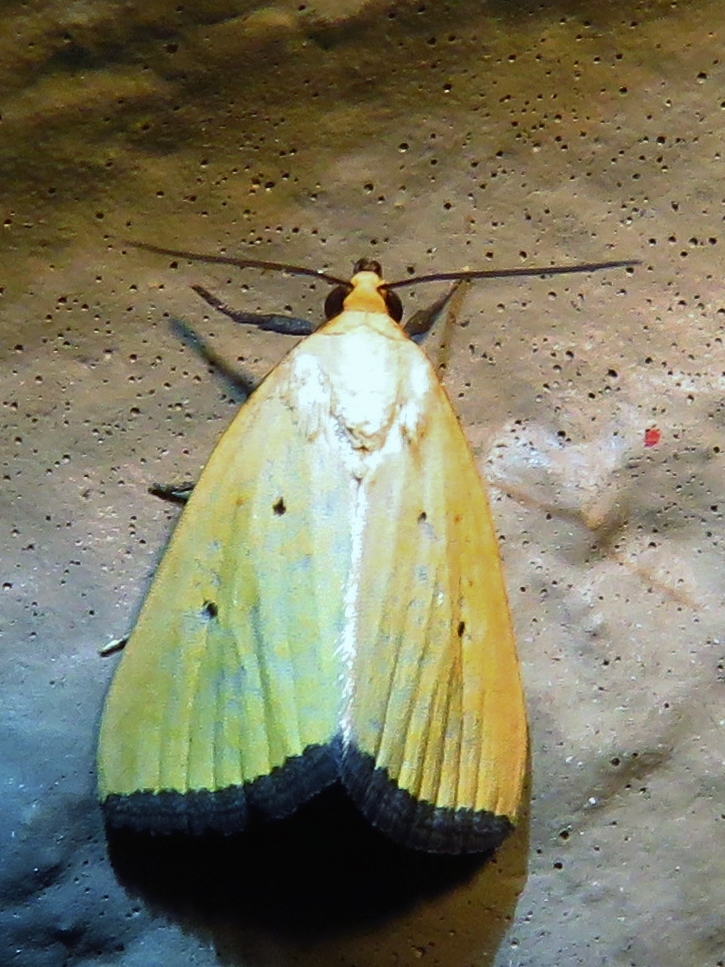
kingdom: Animalia
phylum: Arthropoda
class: Insecta
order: Lepidoptera
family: Noctuidae
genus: Marimatha
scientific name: Marimatha nigrofimbria
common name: Black-bordered lemon moth
